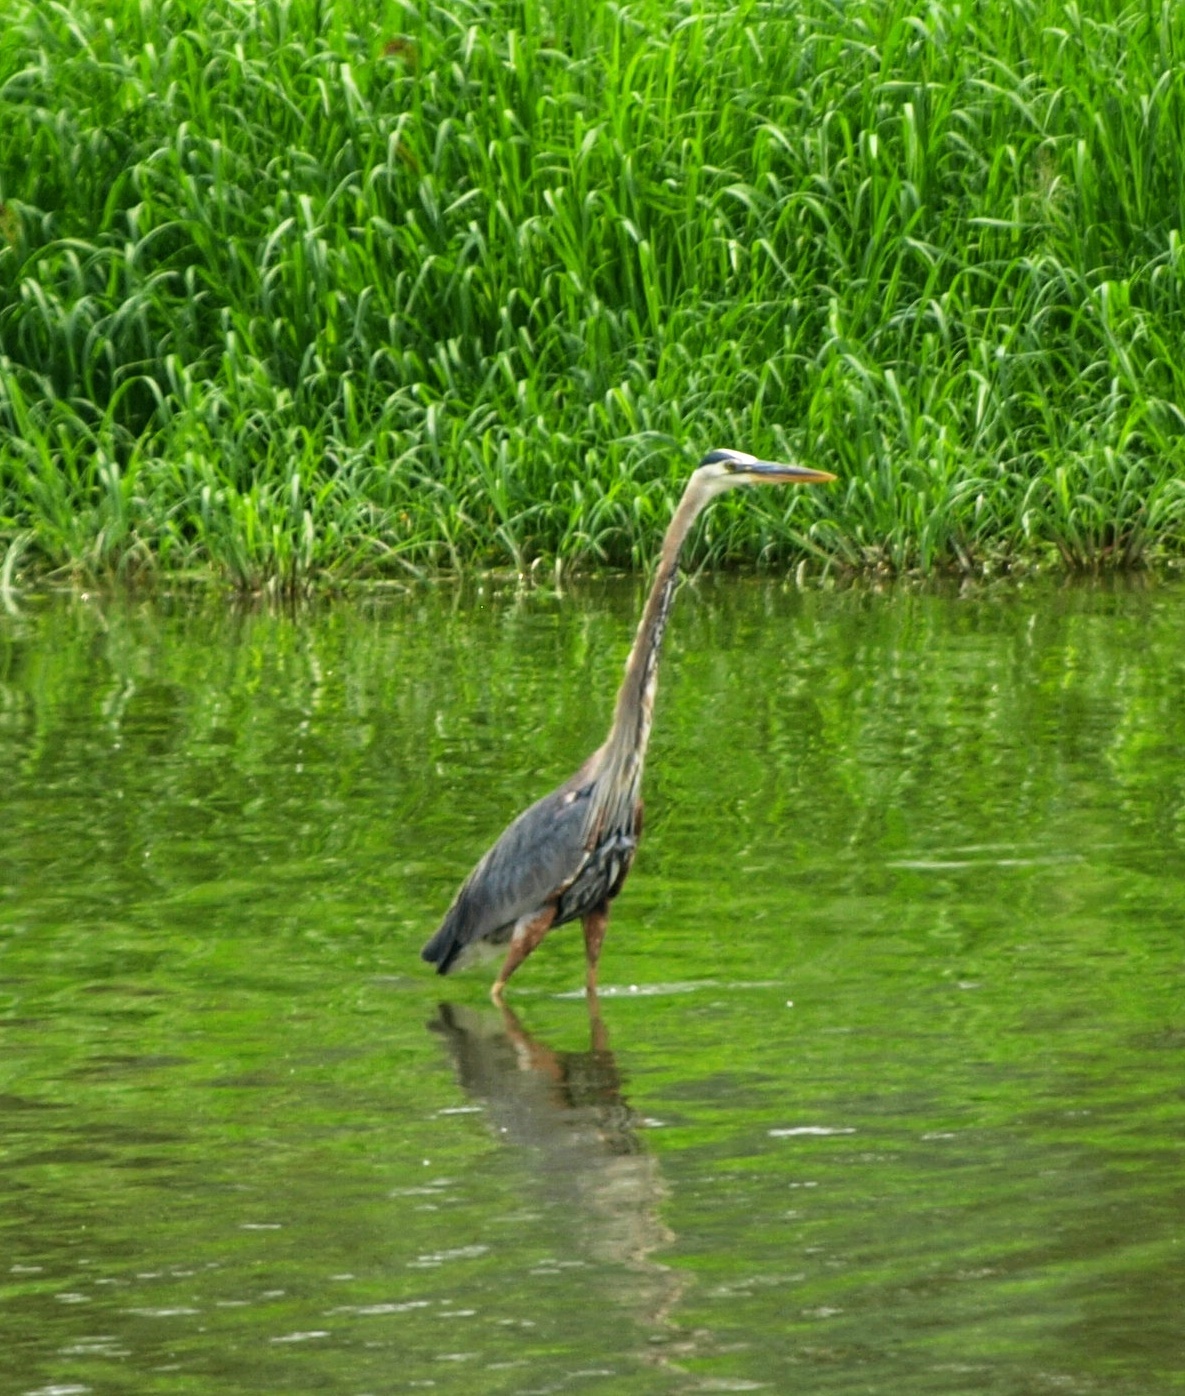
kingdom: Animalia
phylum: Chordata
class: Aves
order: Pelecaniformes
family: Ardeidae
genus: Ardea
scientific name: Ardea herodias
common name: Great blue heron
